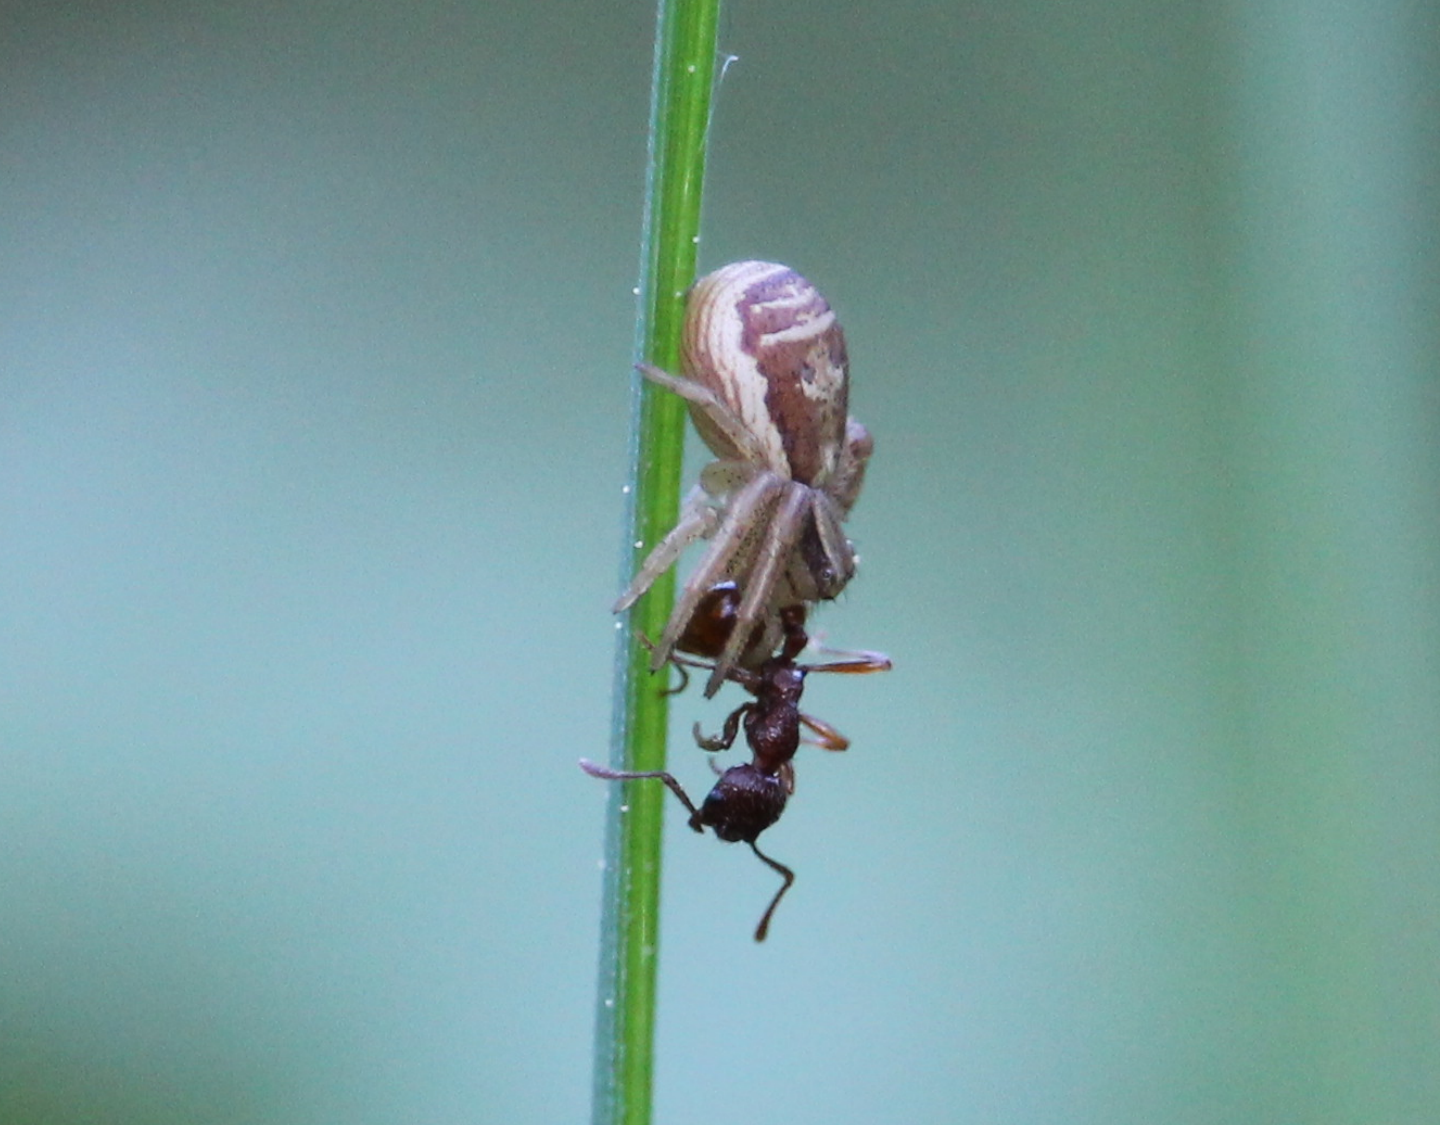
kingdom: Animalia
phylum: Arthropoda
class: Arachnida
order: Araneae
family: Thomisidae
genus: Xysticus
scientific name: Xysticus ulmi
